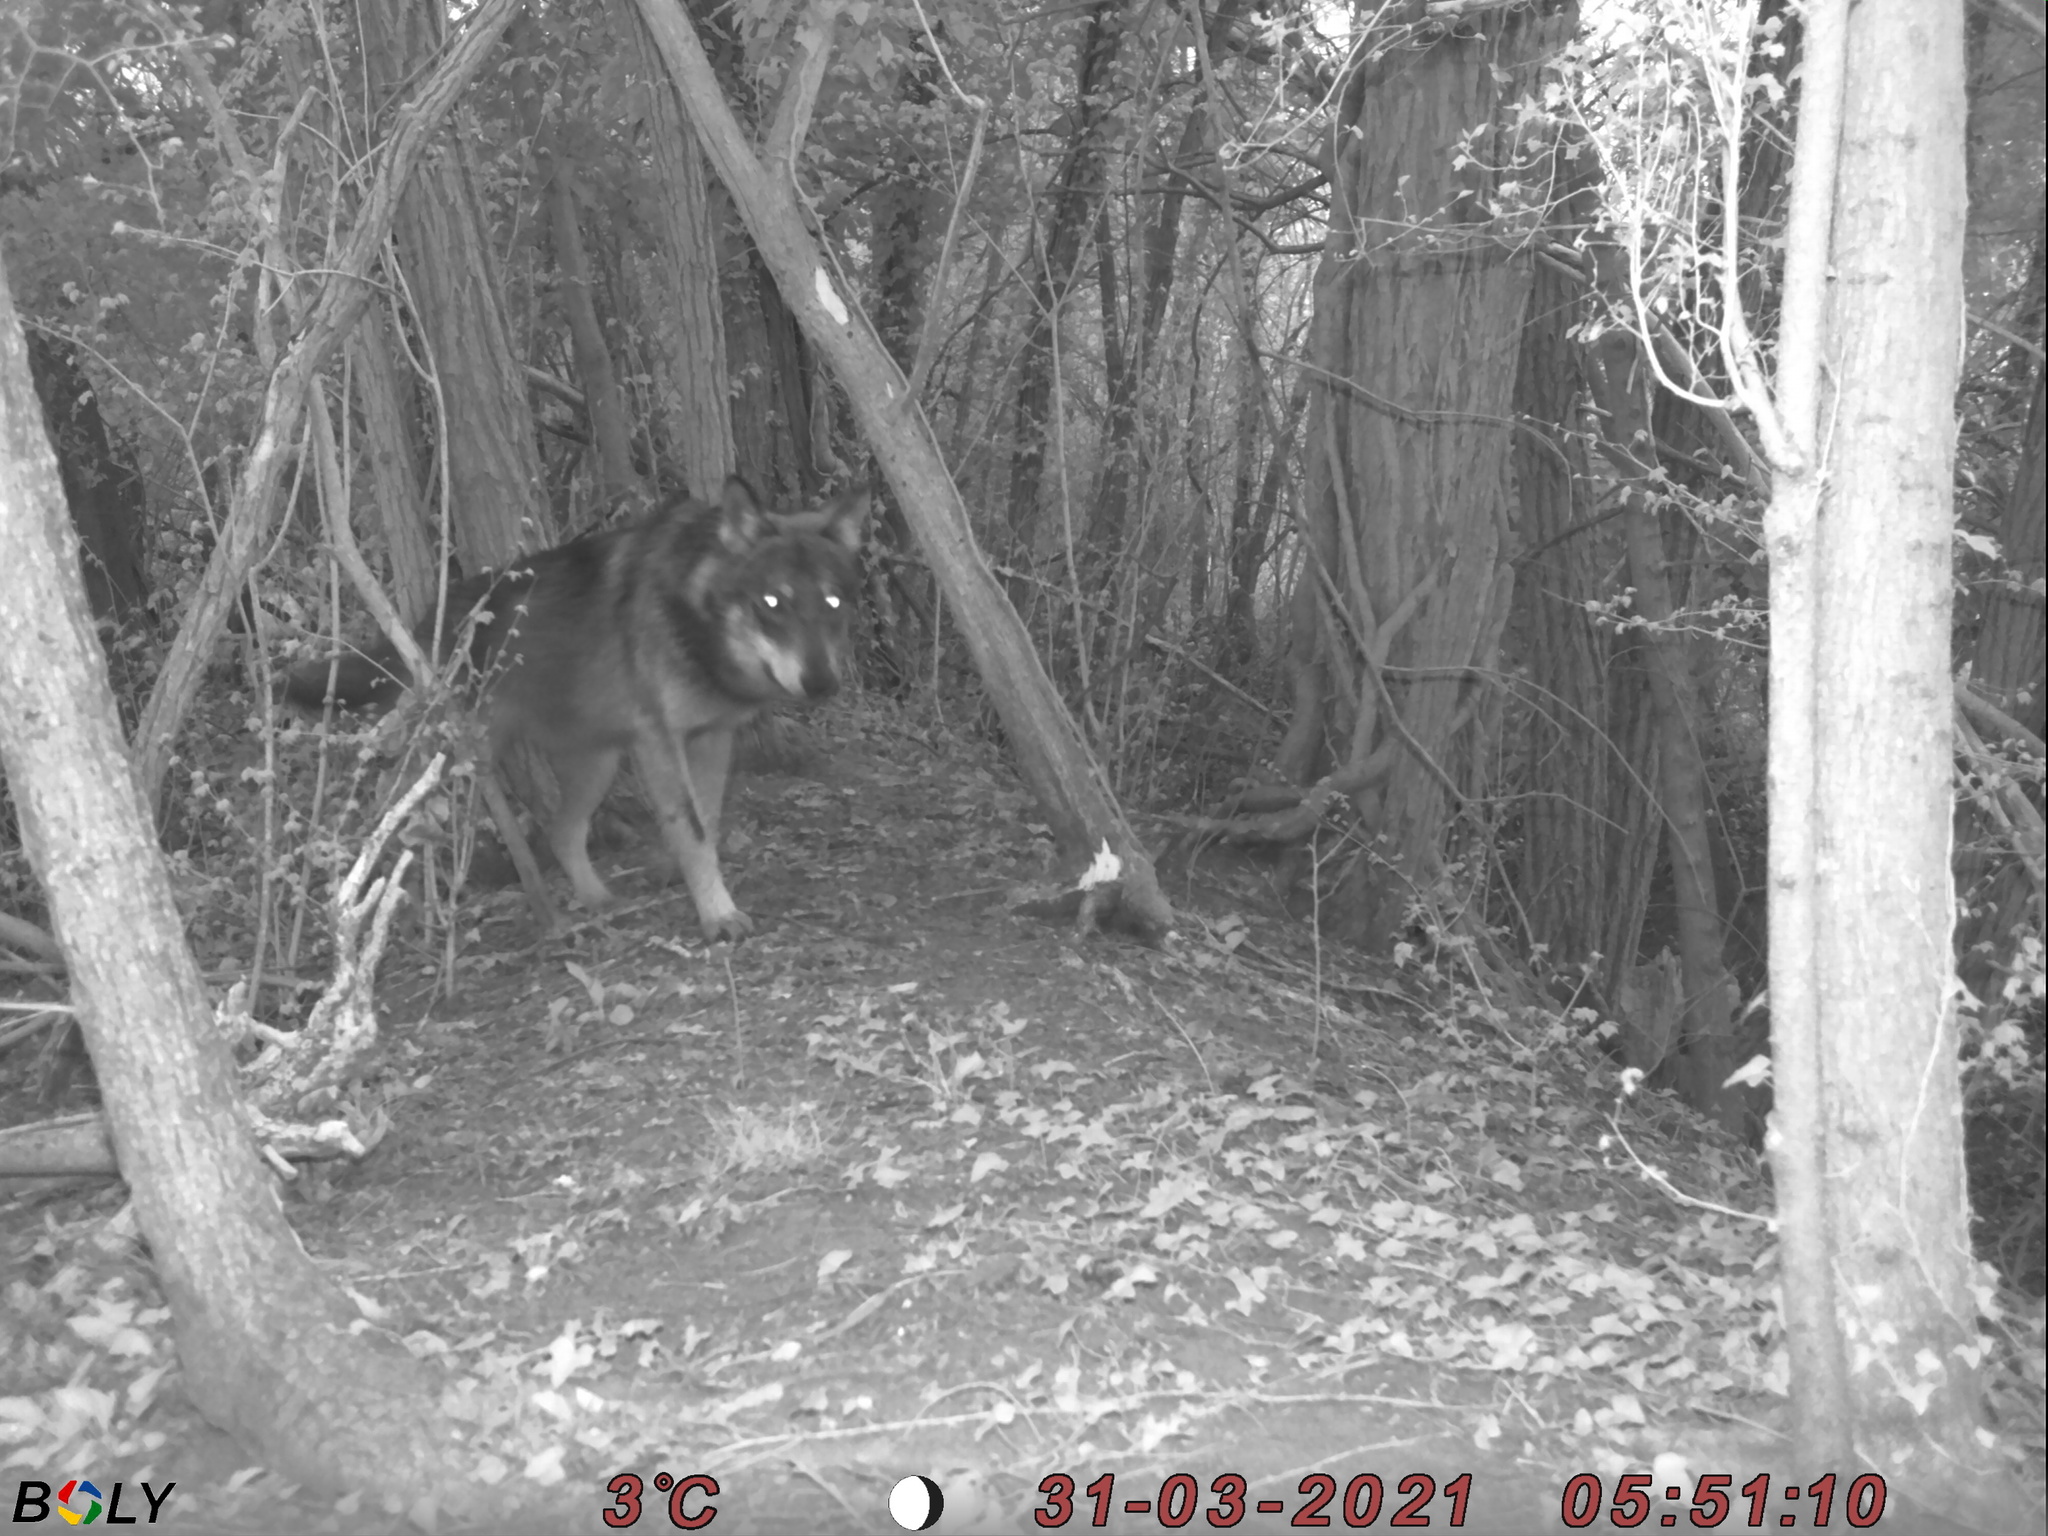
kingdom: Animalia
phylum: Chordata
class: Mammalia
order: Carnivora
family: Canidae
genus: Canis
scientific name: Canis lupus
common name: Gray wolf
